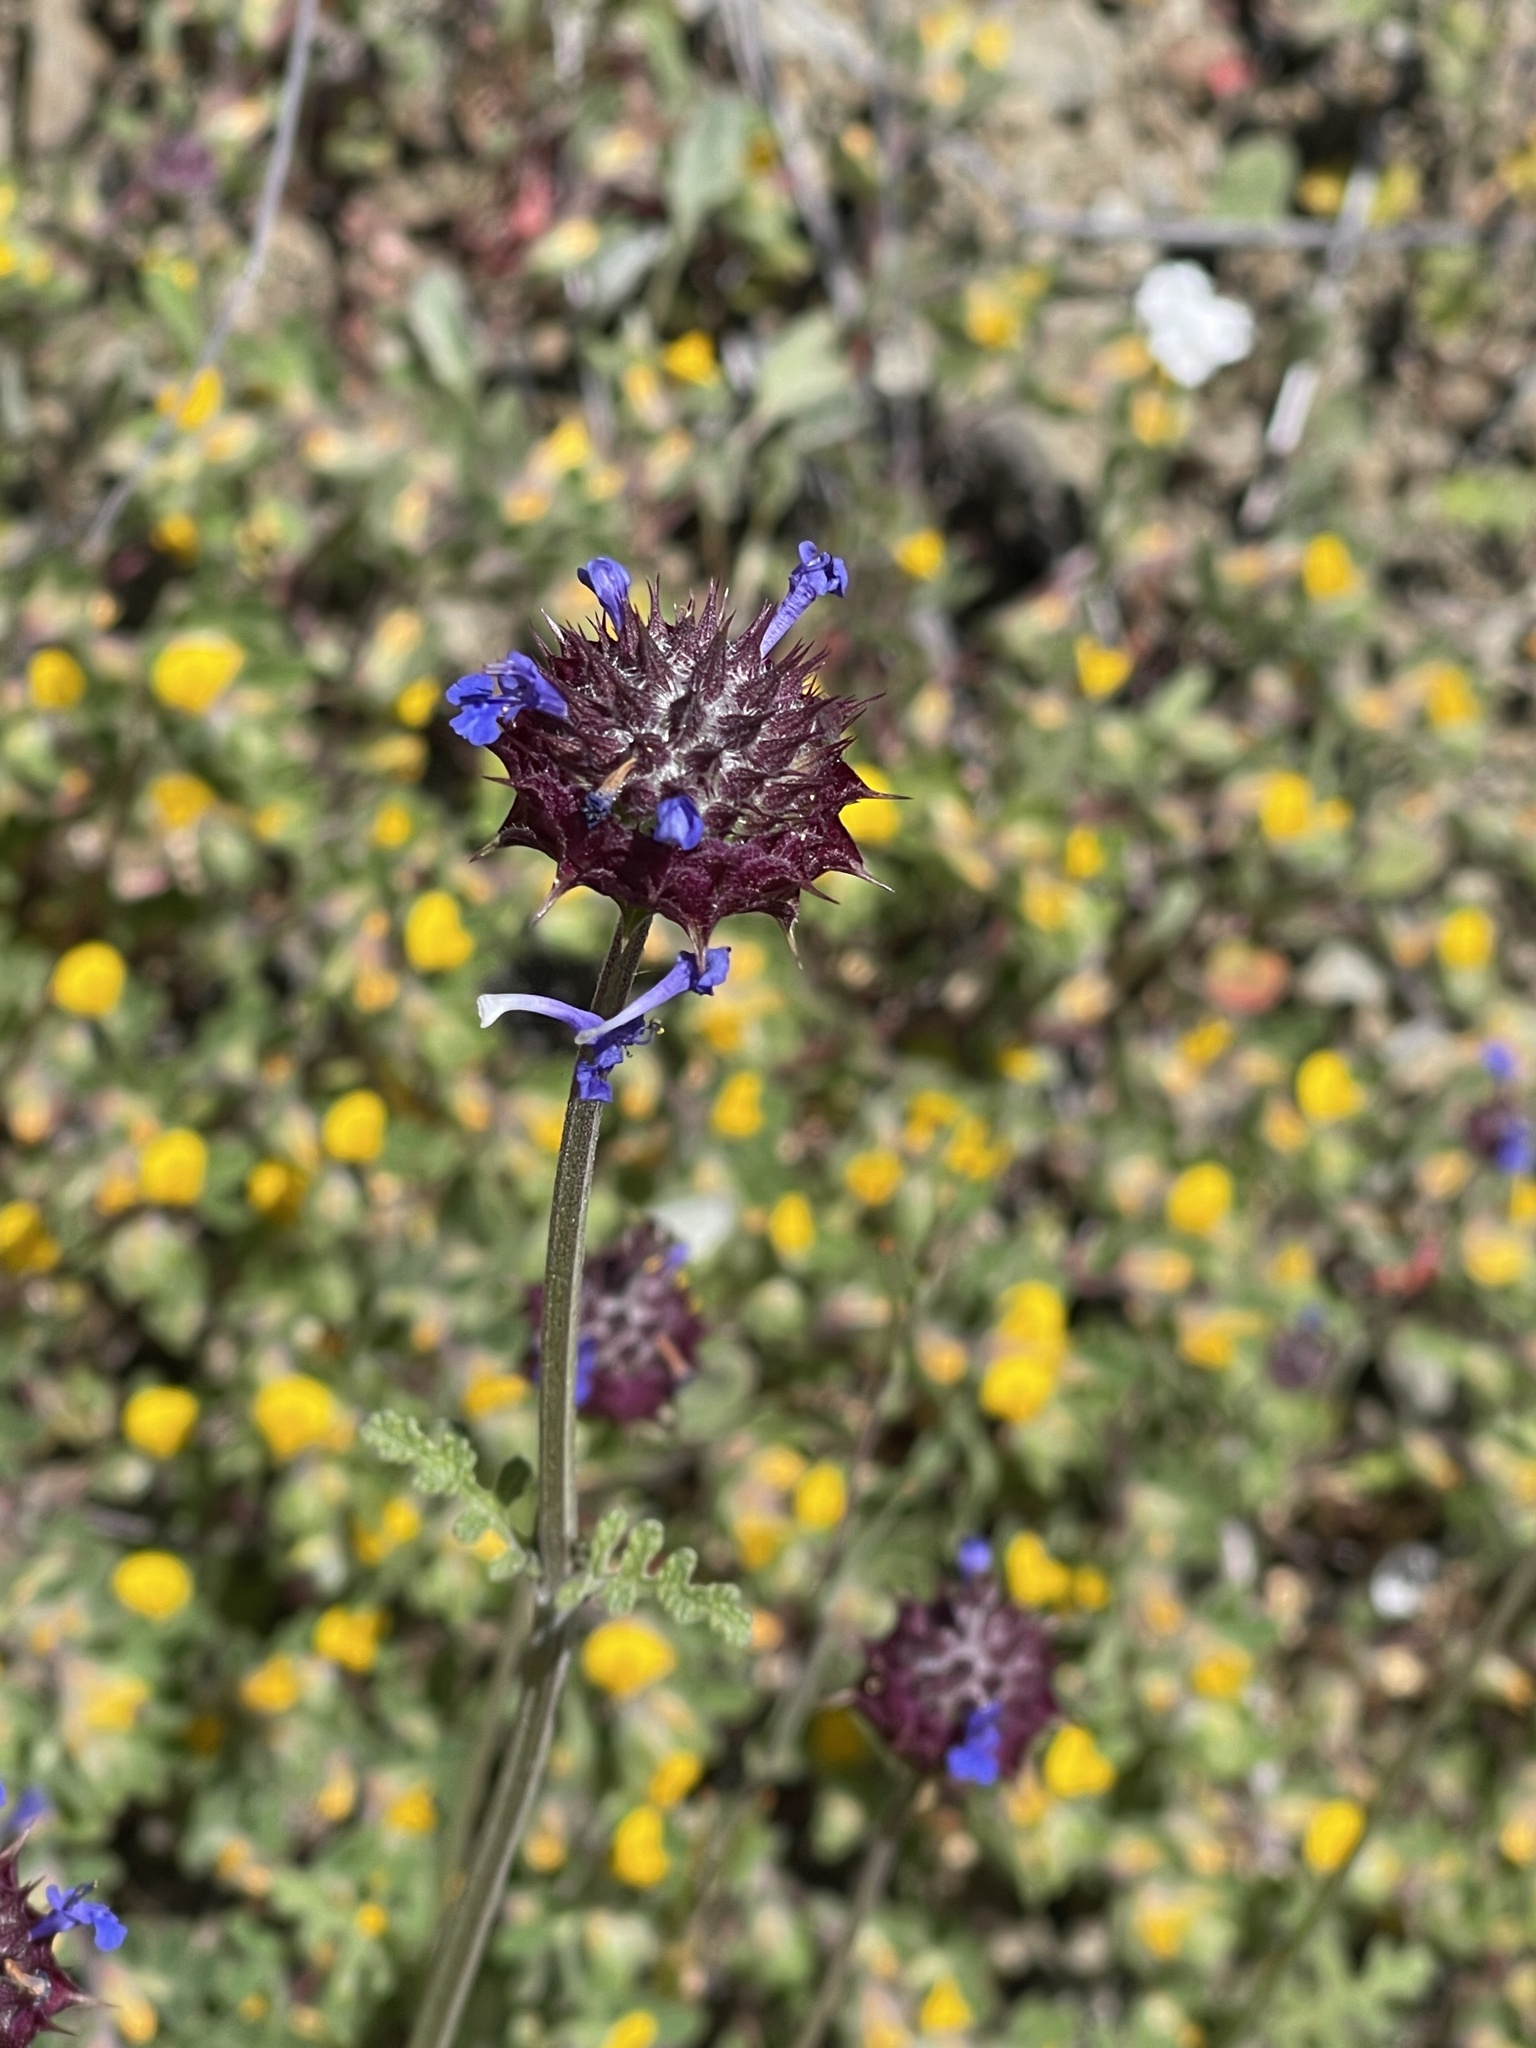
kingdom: Plantae
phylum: Tracheophyta
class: Magnoliopsida
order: Lamiales
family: Lamiaceae
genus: Salvia
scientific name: Salvia columbariae
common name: Chia
